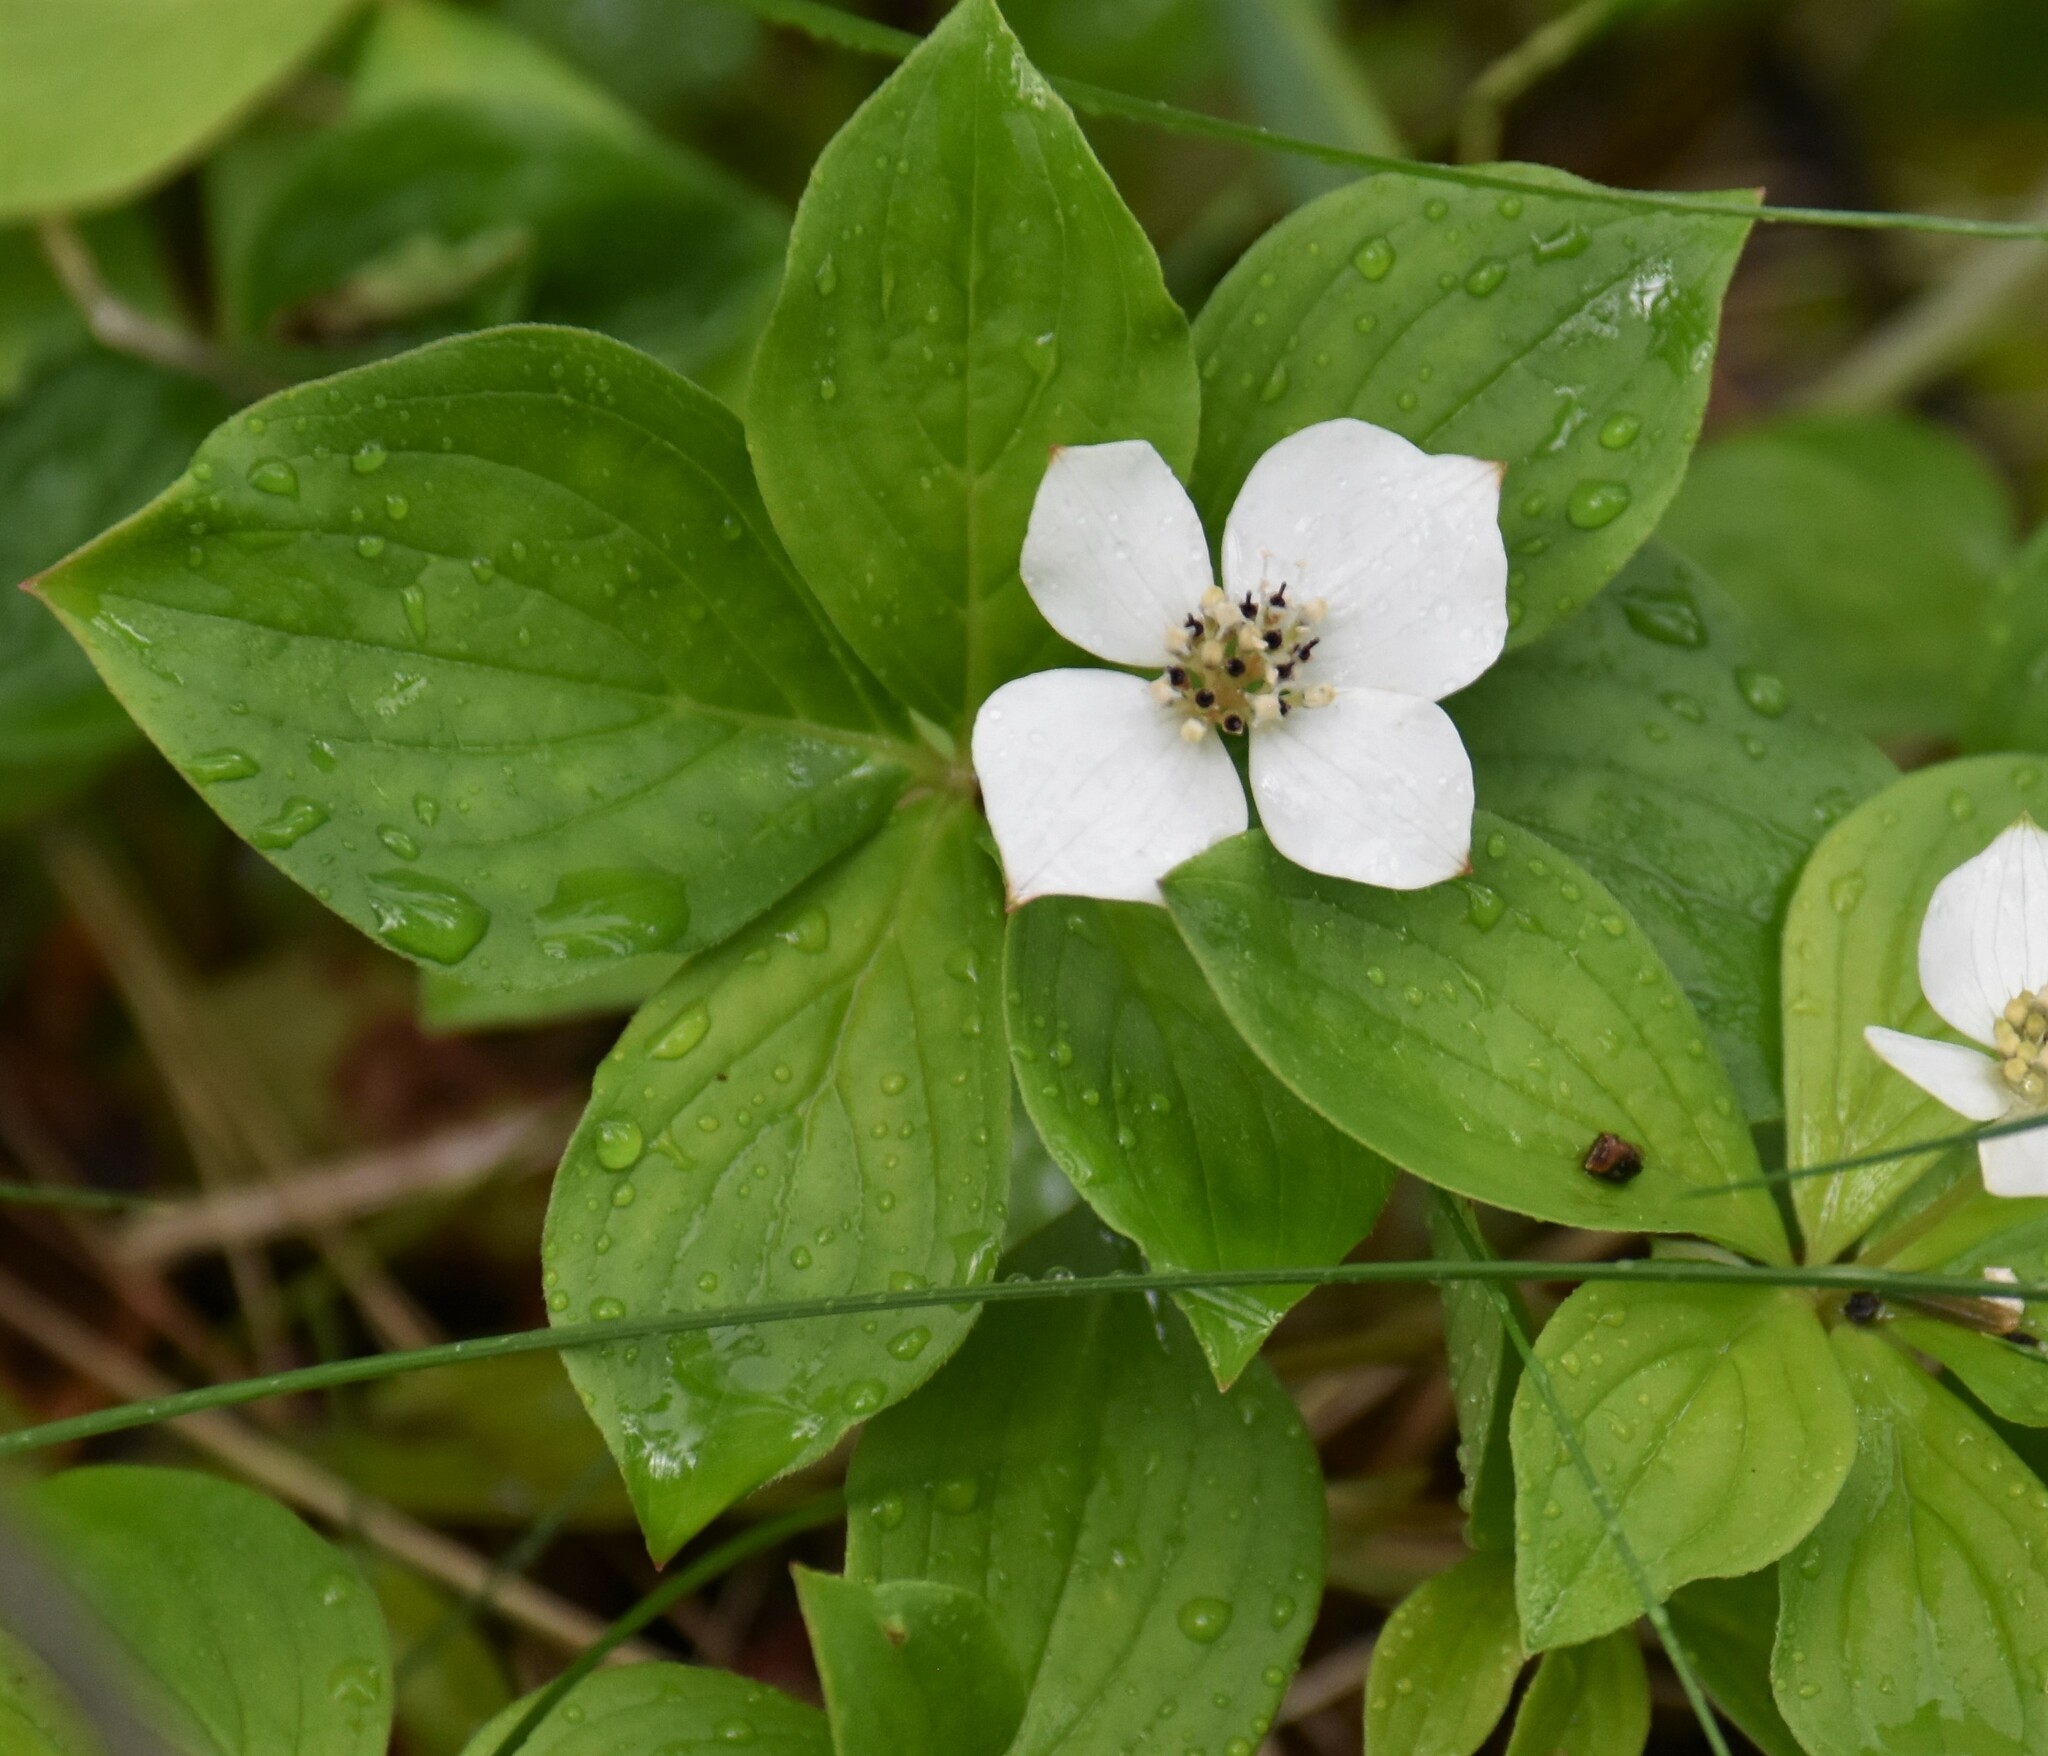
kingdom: Plantae
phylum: Tracheophyta
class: Magnoliopsida
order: Cornales
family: Cornaceae
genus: Cornus
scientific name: Cornus canadensis
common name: Creeping dogwood
